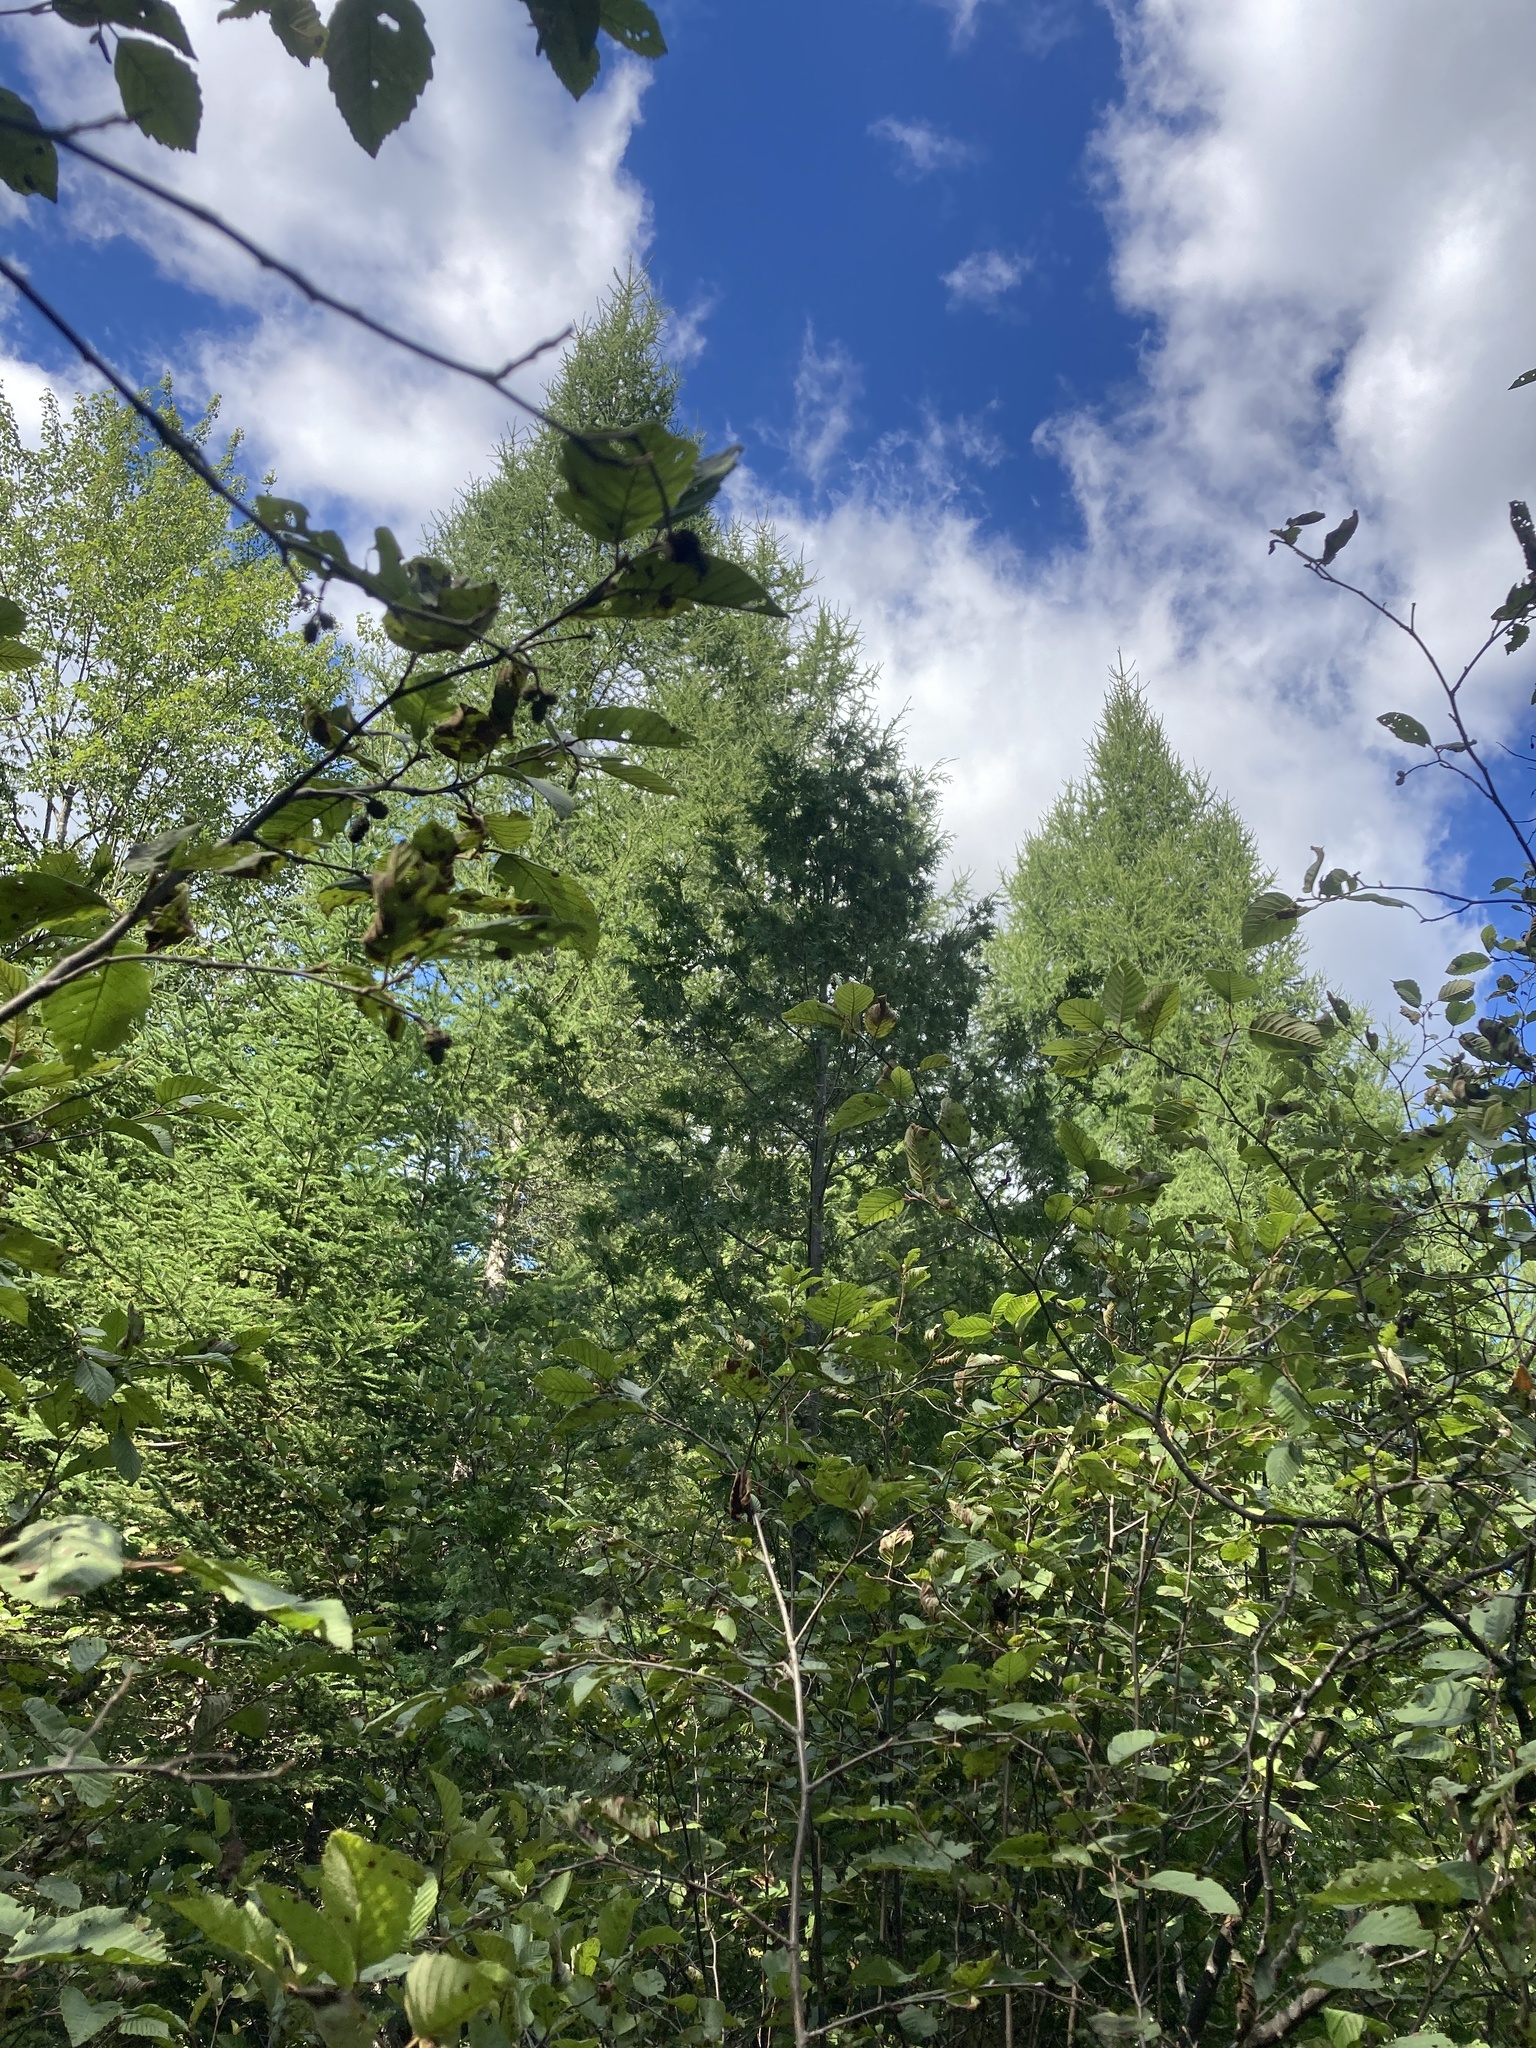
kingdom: Plantae
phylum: Tracheophyta
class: Pinopsida
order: Pinales
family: Pinaceae
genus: Larix
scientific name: Larix laricina
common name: American larch
